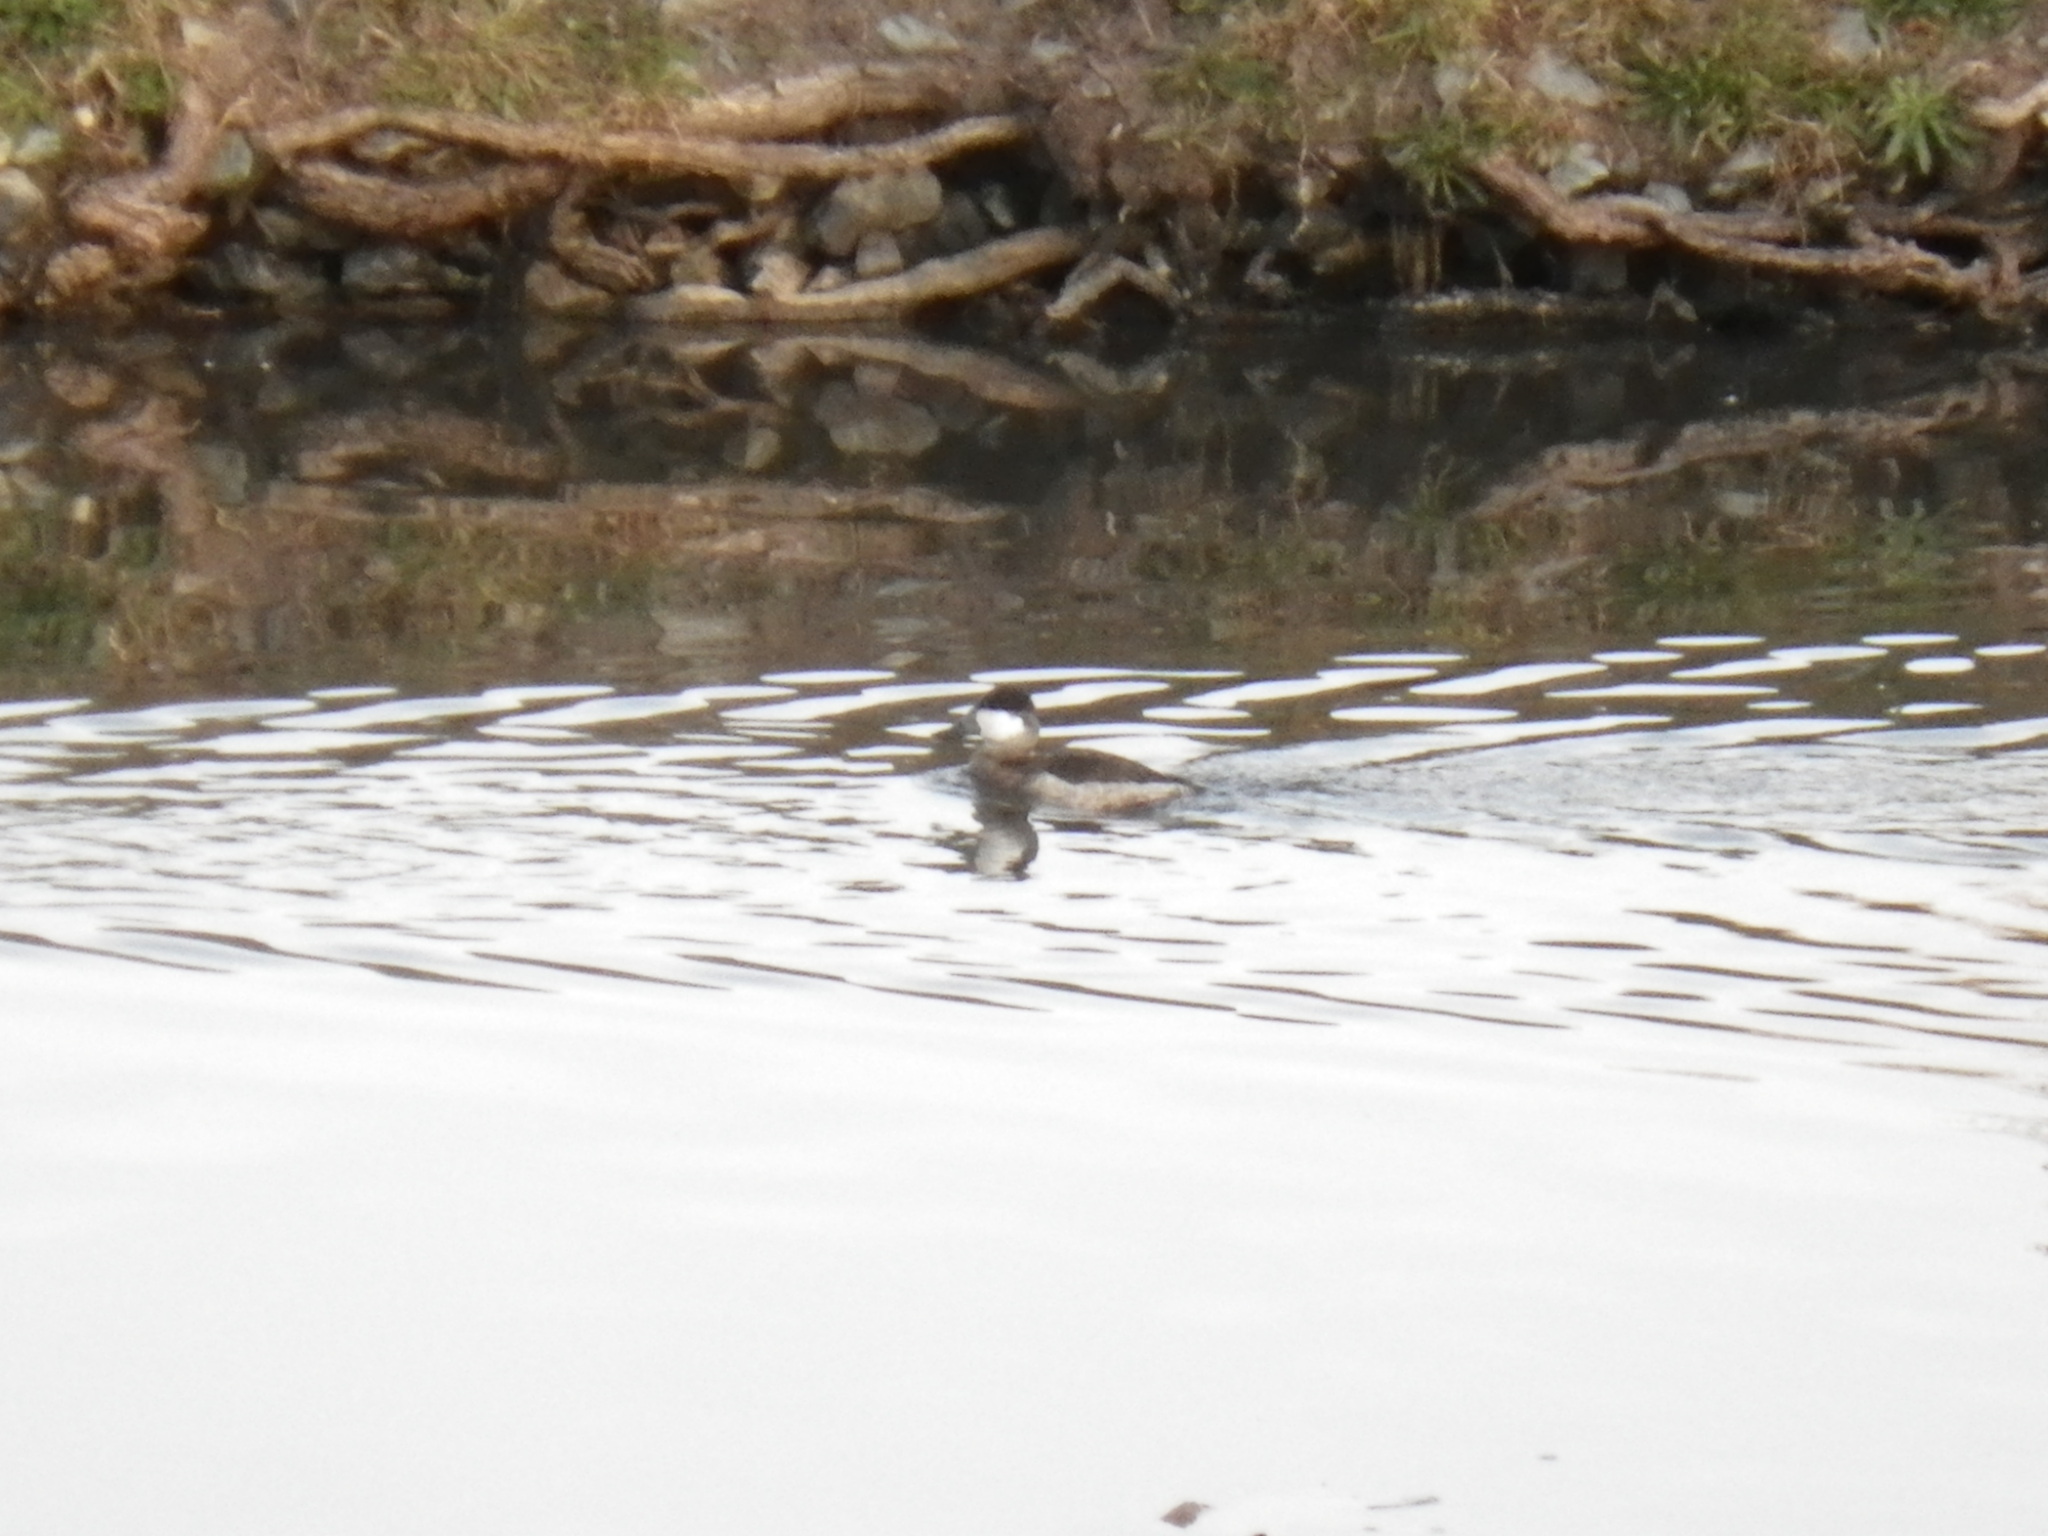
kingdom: Animalia
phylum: Chordata
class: Aves
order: Anseriformes
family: Anatidae
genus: Oxyura
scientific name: Oxyura jamaicensis
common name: Ruddy duck
